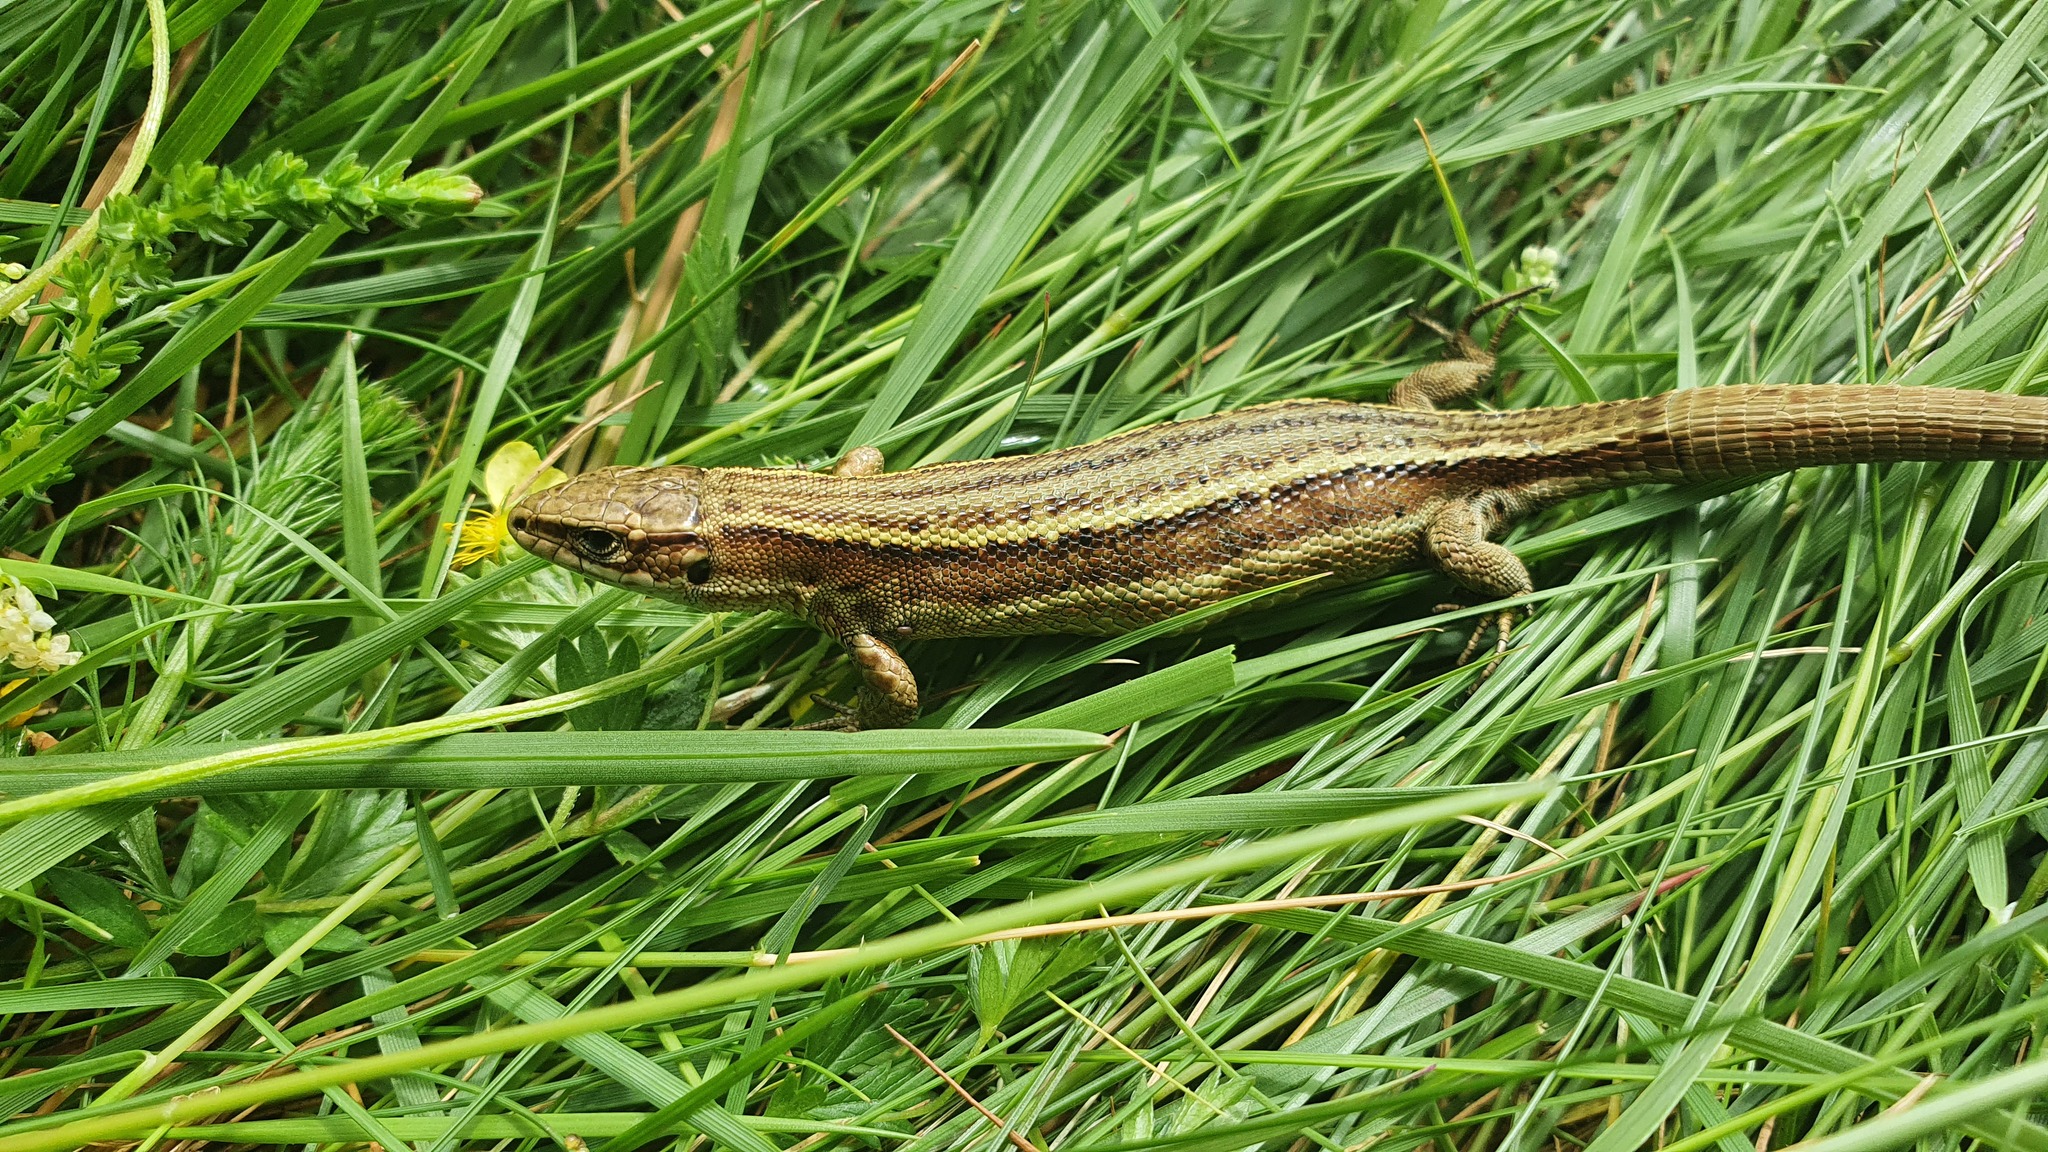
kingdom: Animalia
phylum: Chordata
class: Squamata
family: Lacertidae
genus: Zootoca
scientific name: Zootoca vivipara
